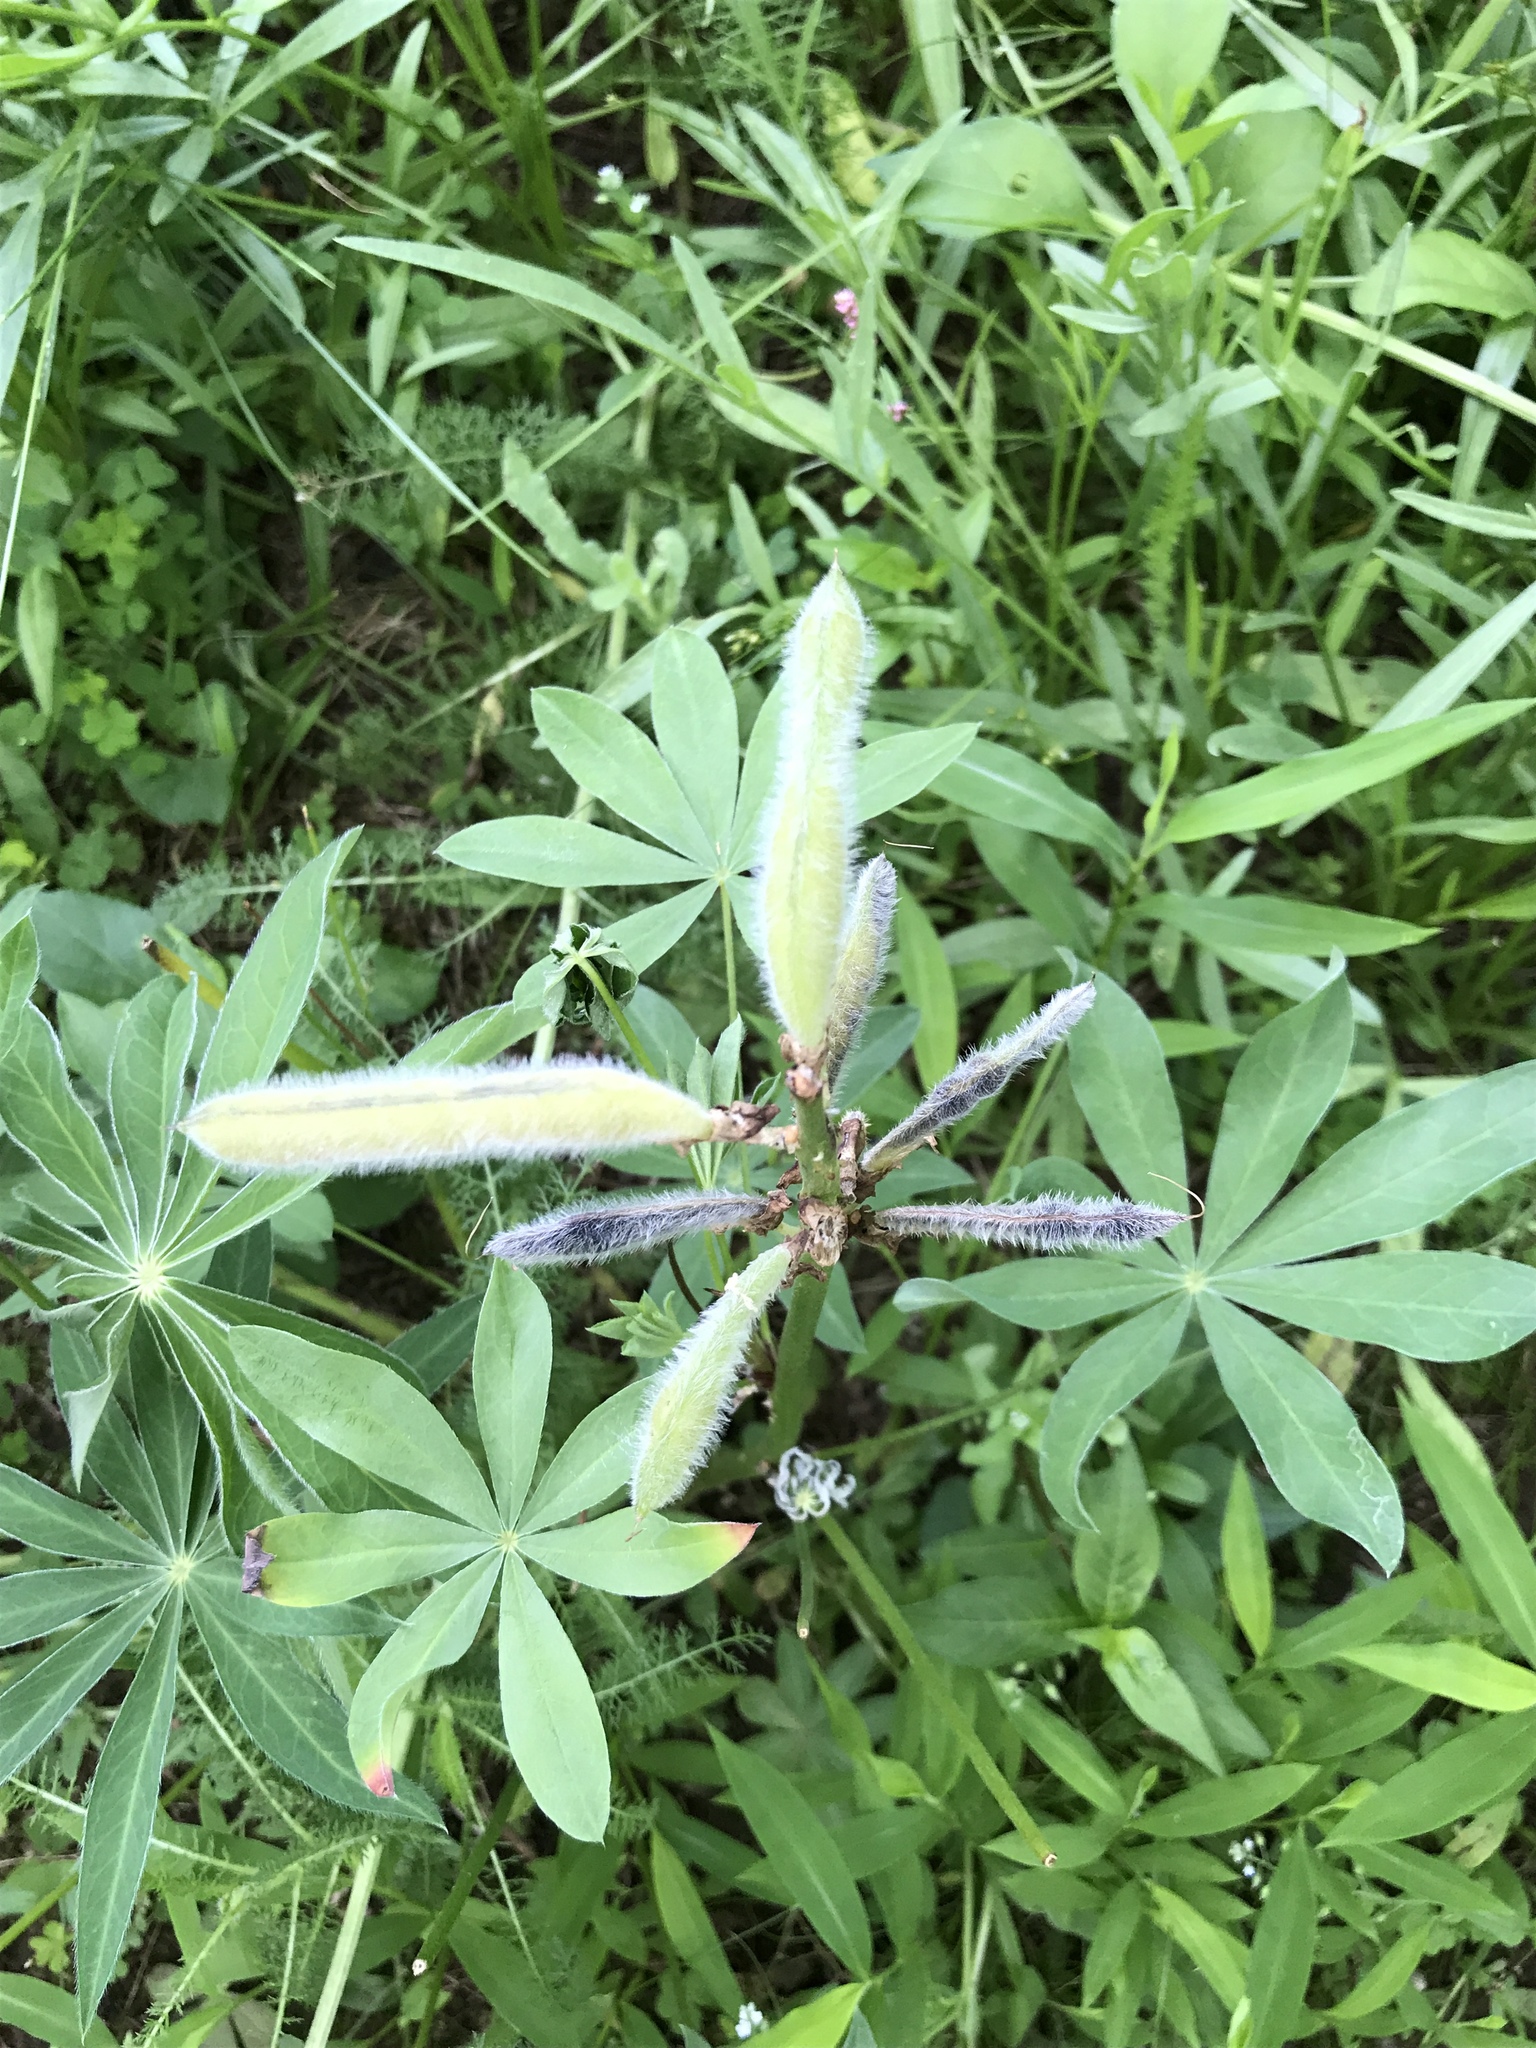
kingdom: Plantae
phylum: Tracheophyta
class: Magnoliopsida
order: Fabales
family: Fabaceae
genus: Lupinus
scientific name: Lupinus polyphyllus
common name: Garden lupin
